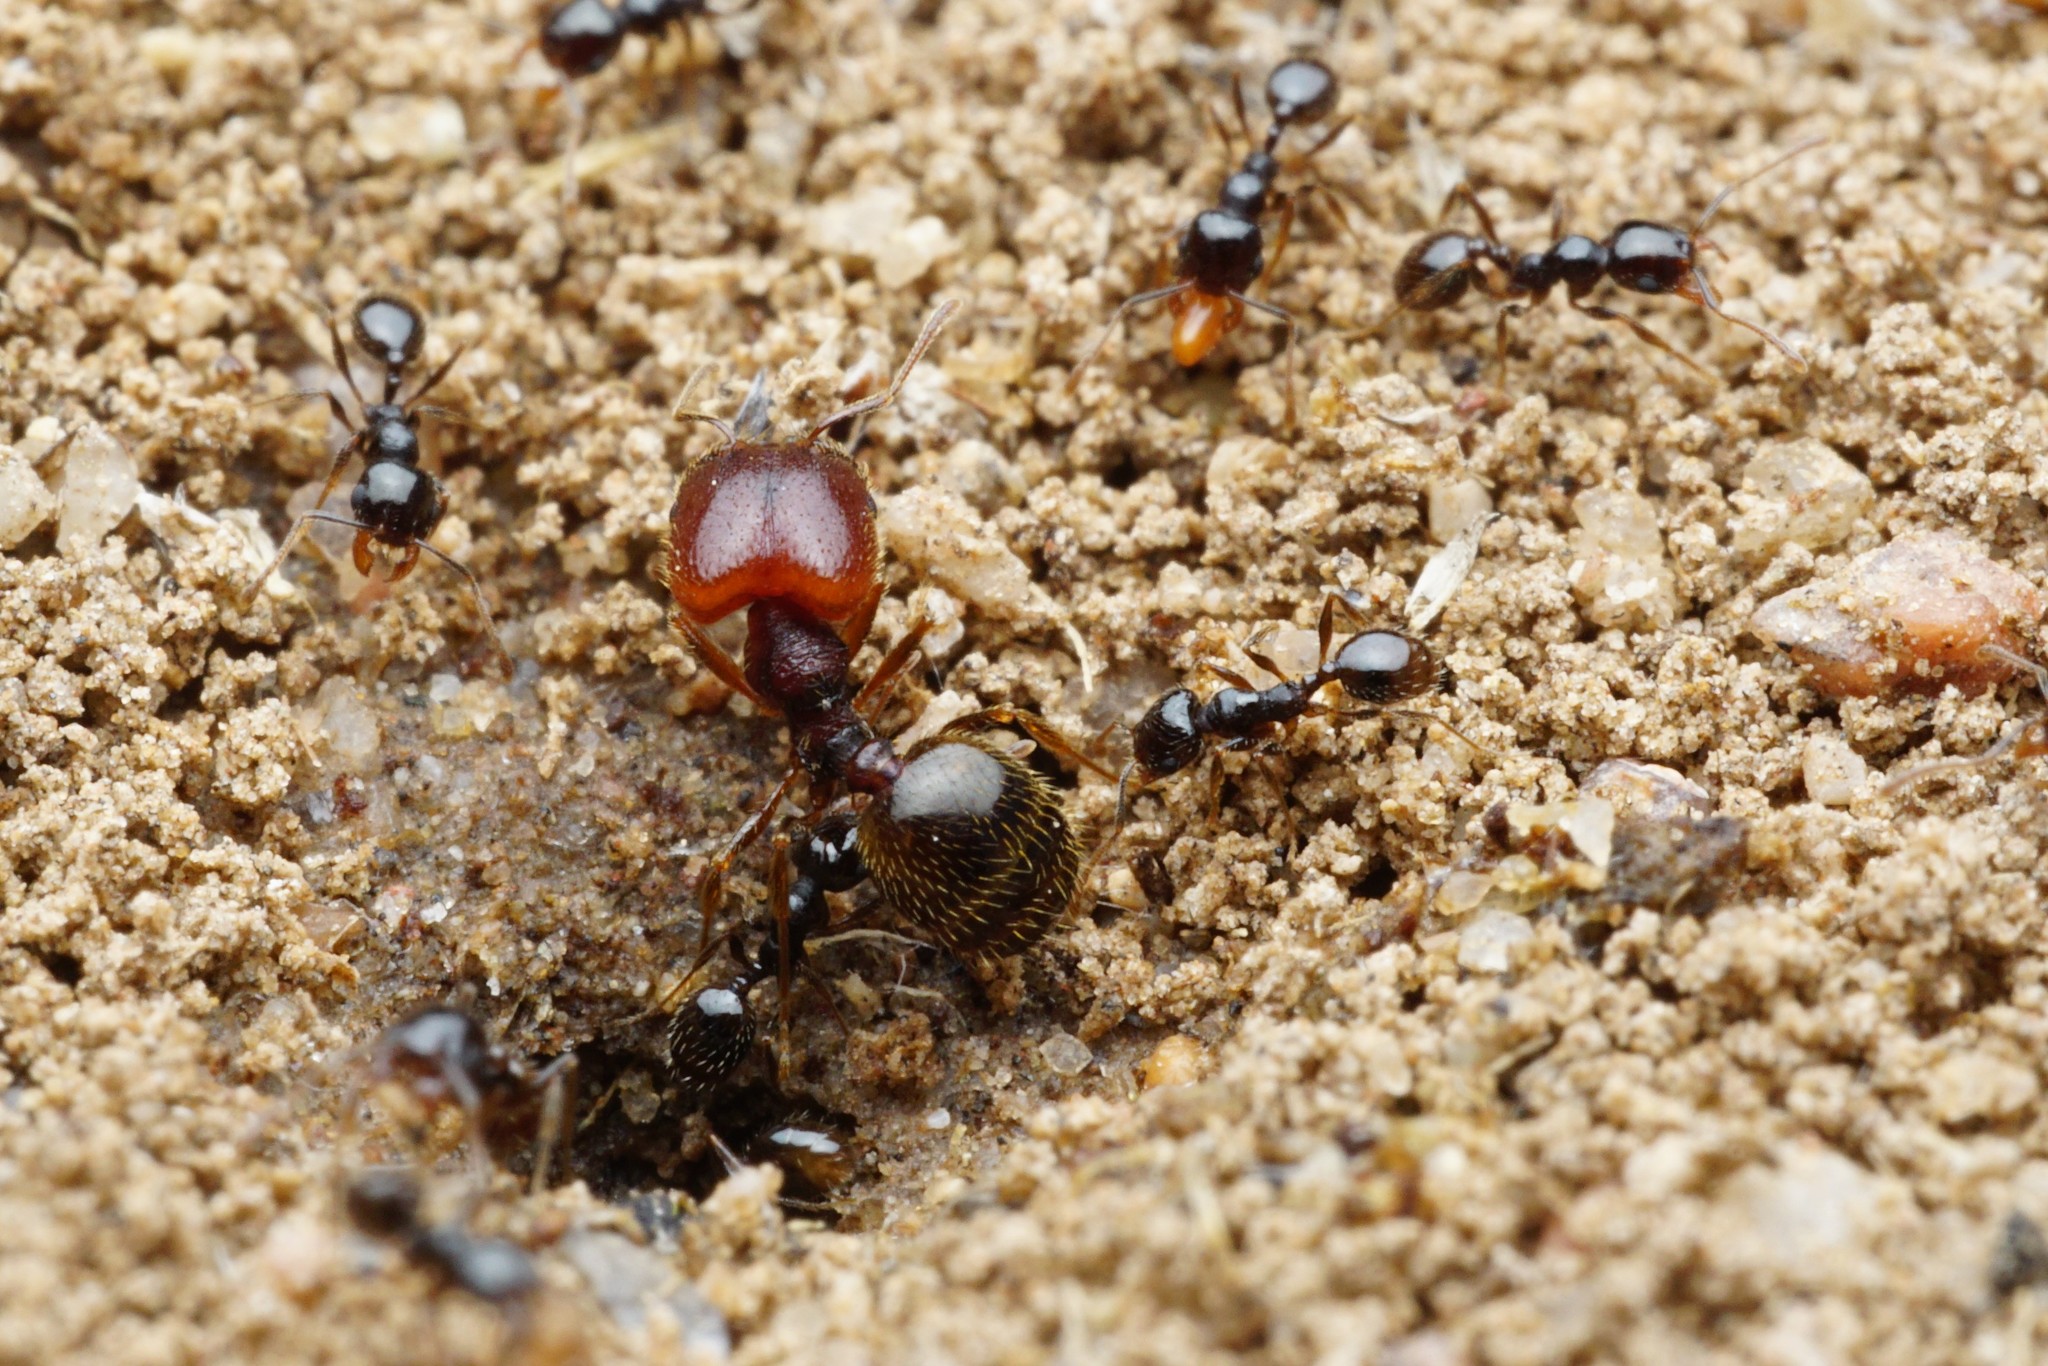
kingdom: Animalia
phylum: Arthropoda
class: Insecta
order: Hymenoptera
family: Formicidae
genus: Pheidole
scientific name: Pheidole xerophila
